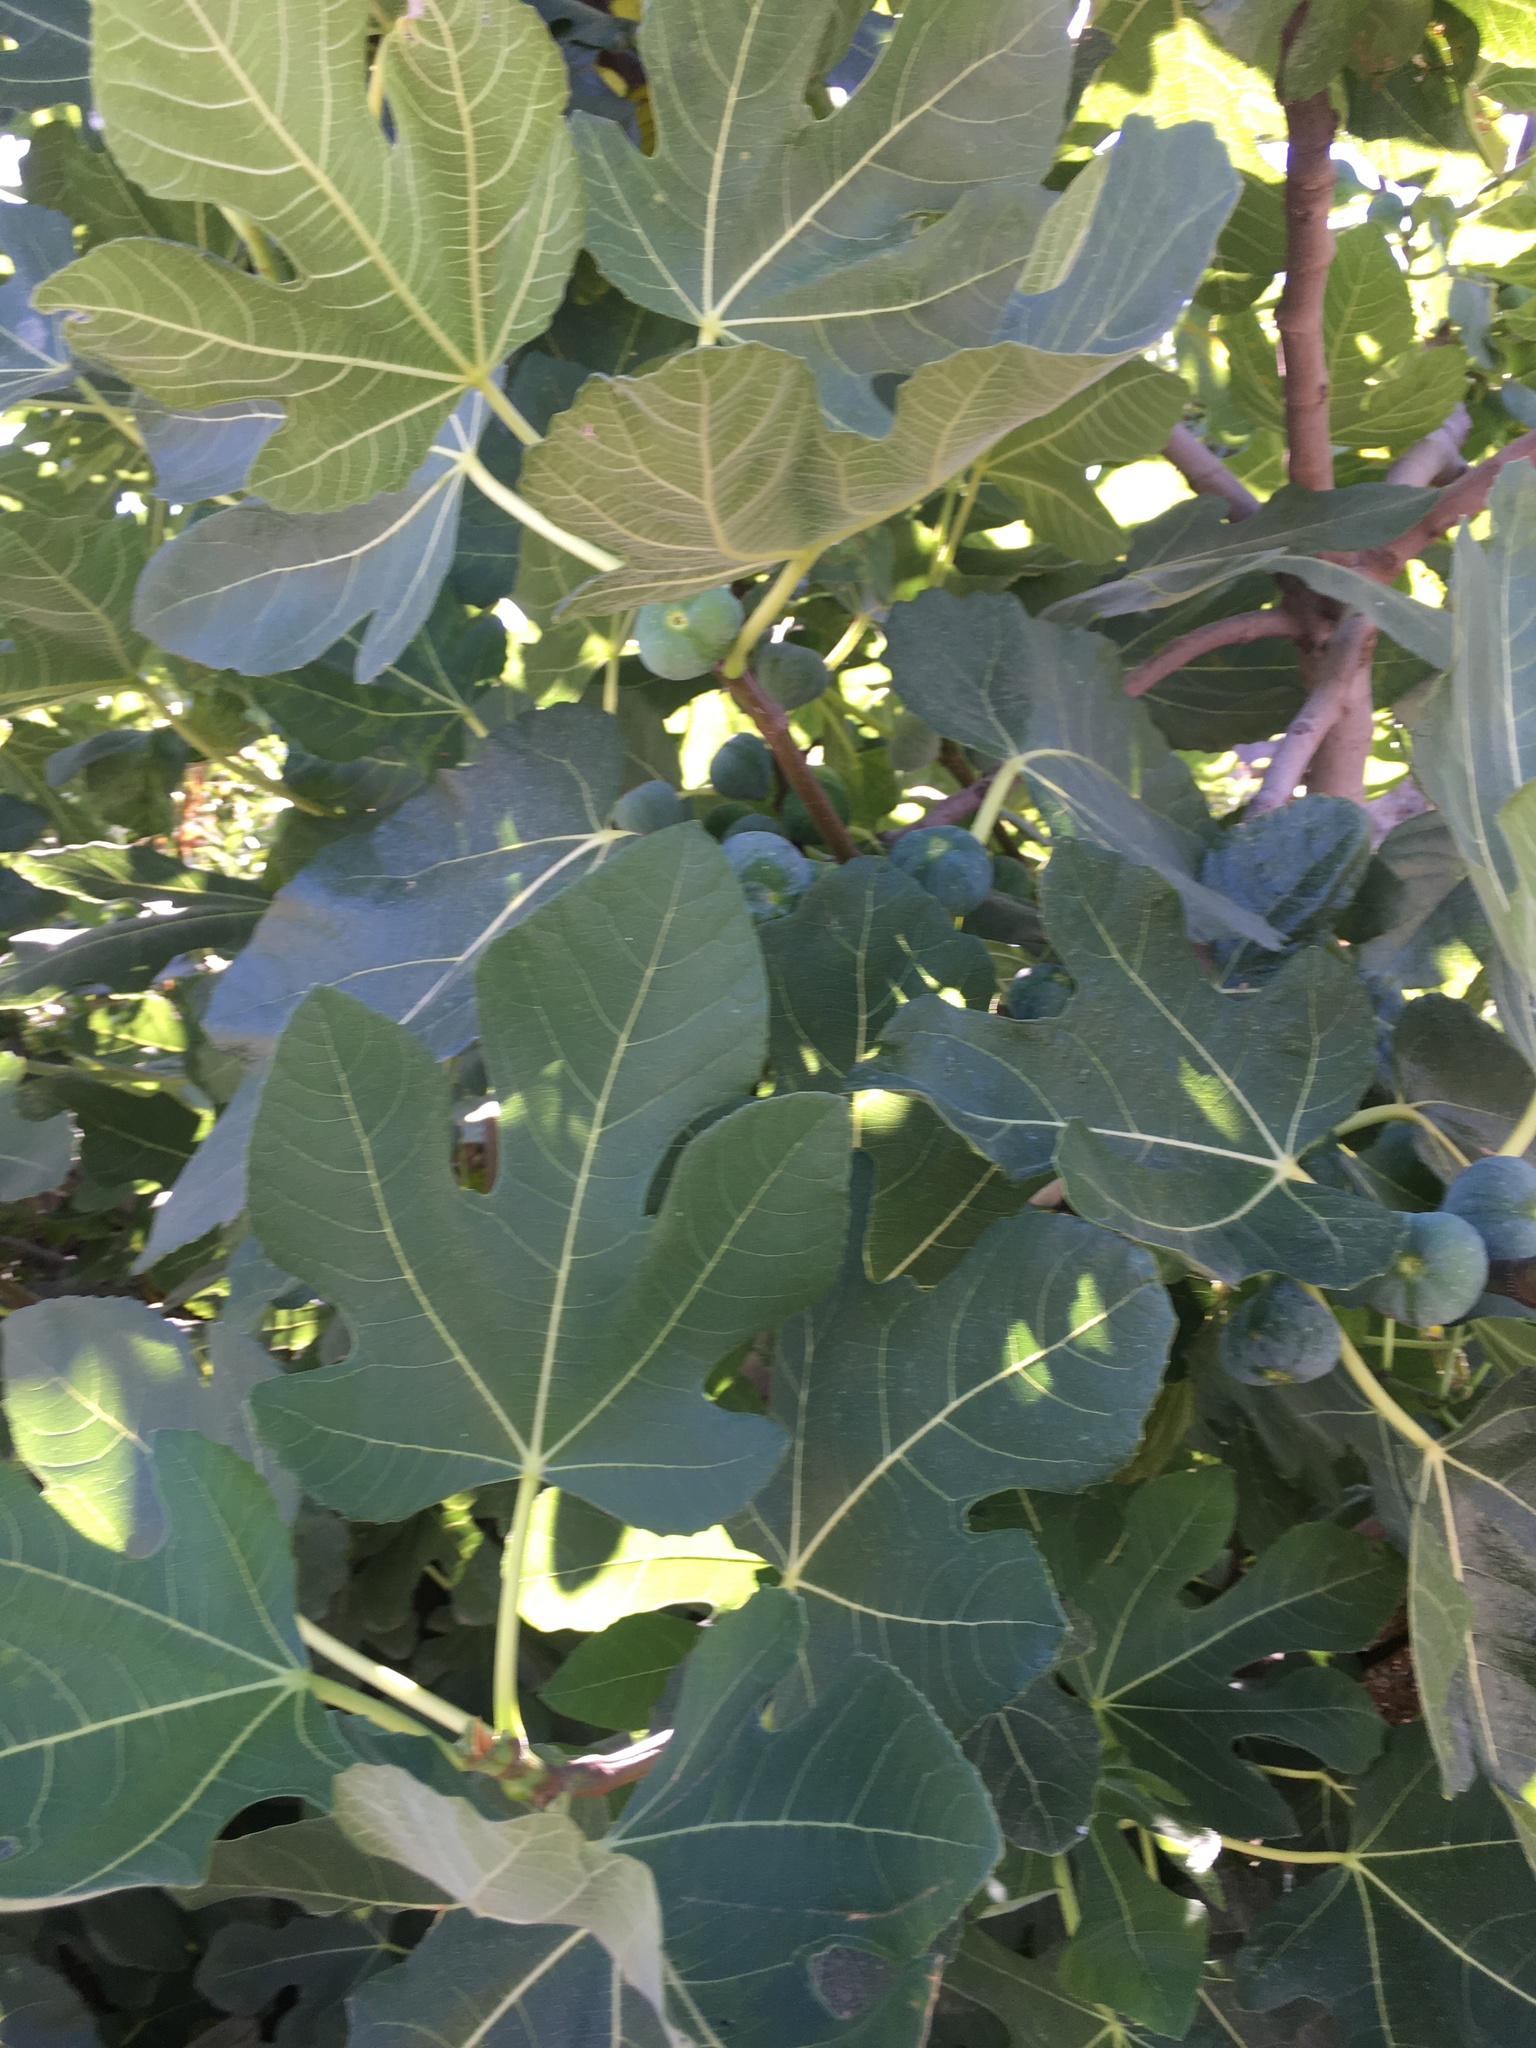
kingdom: Plantae
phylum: Tracheophyta
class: Magnoliopsida
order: Rosales
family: Moraceae
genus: Ficus
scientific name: Ficus carica
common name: Fig
